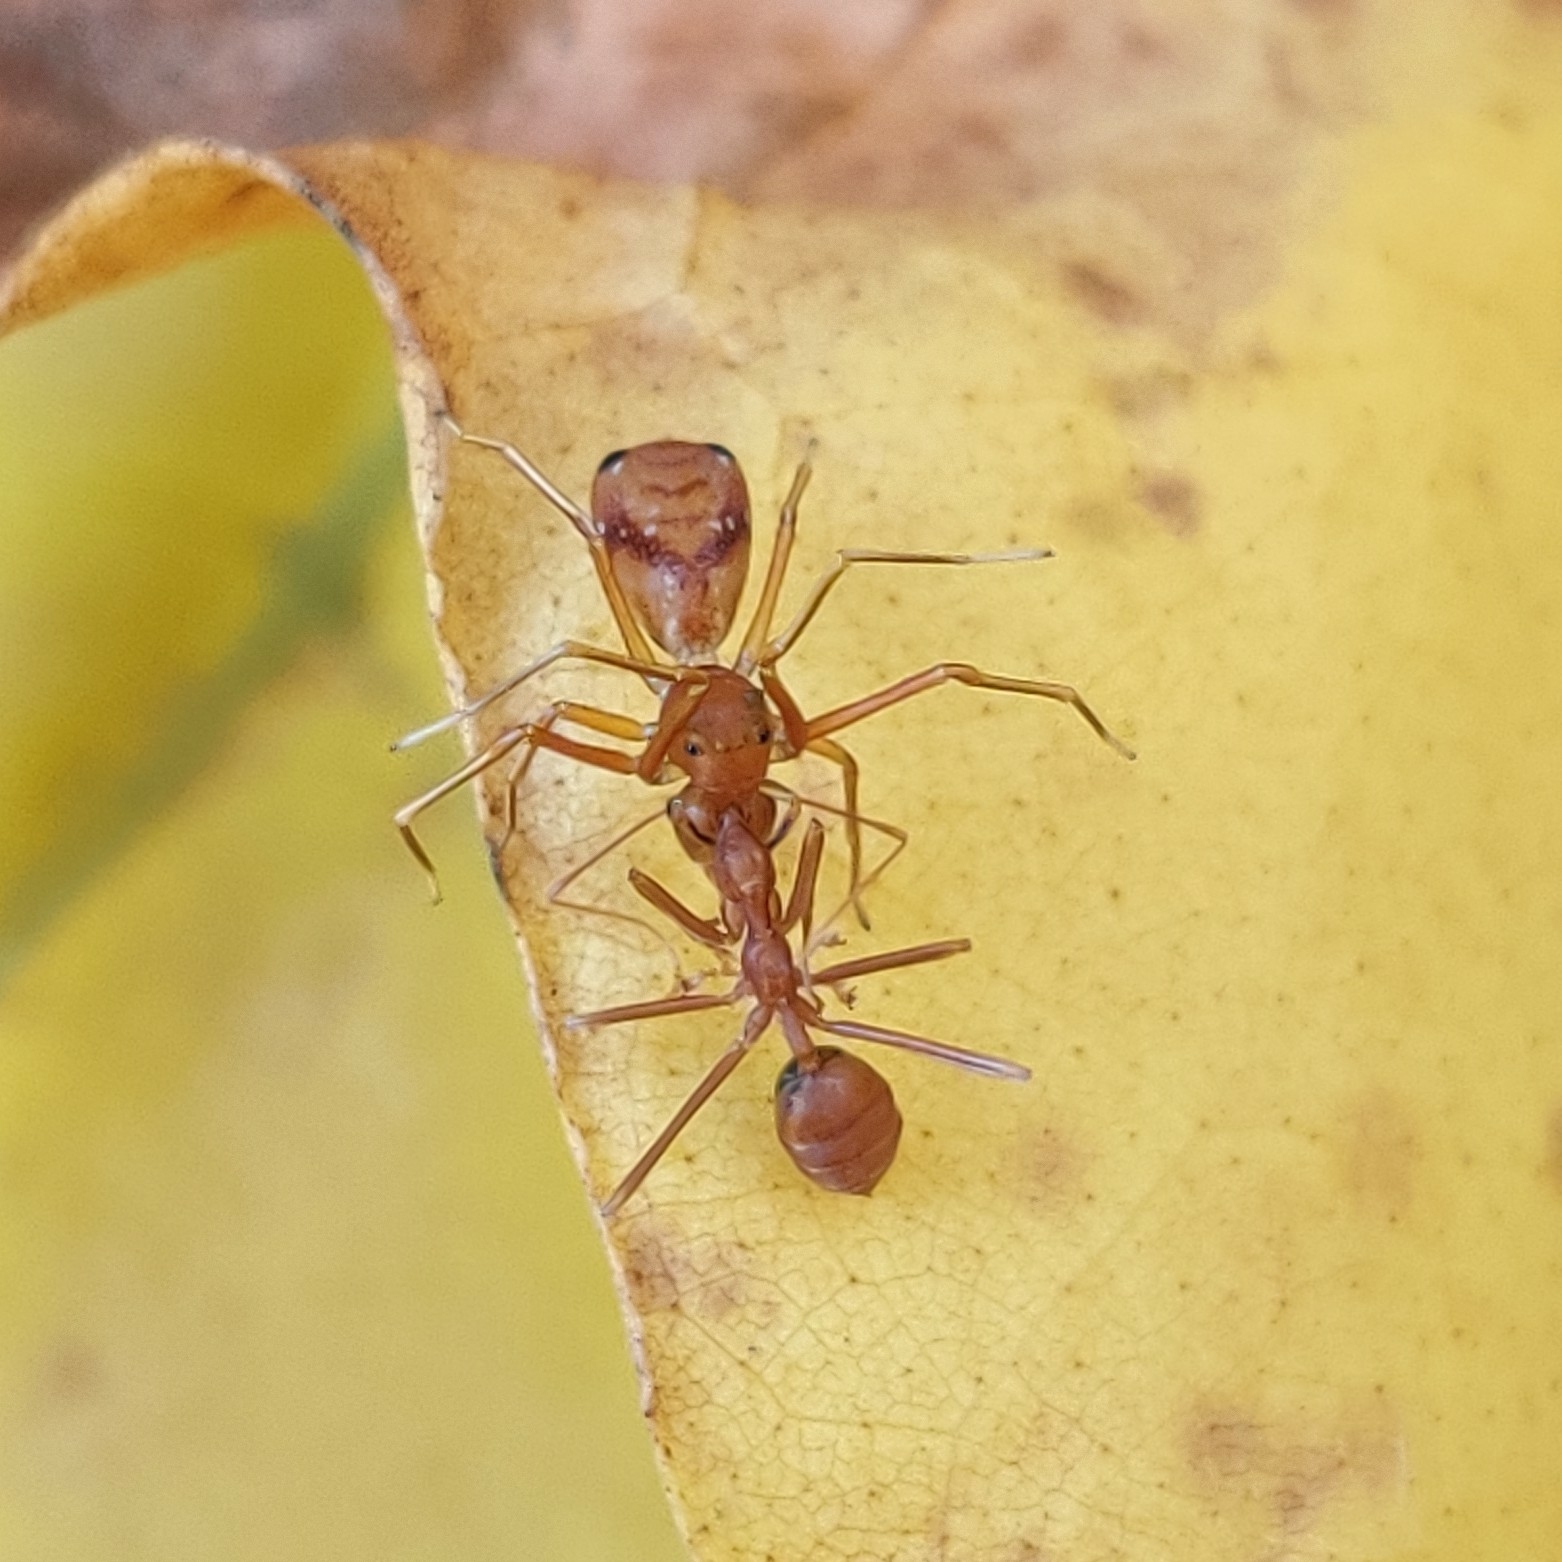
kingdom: Animalia
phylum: Arthropoda
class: Arachnida
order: Araneae
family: Thomisidae
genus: Amyciaea
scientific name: Amyciaea forticeps
